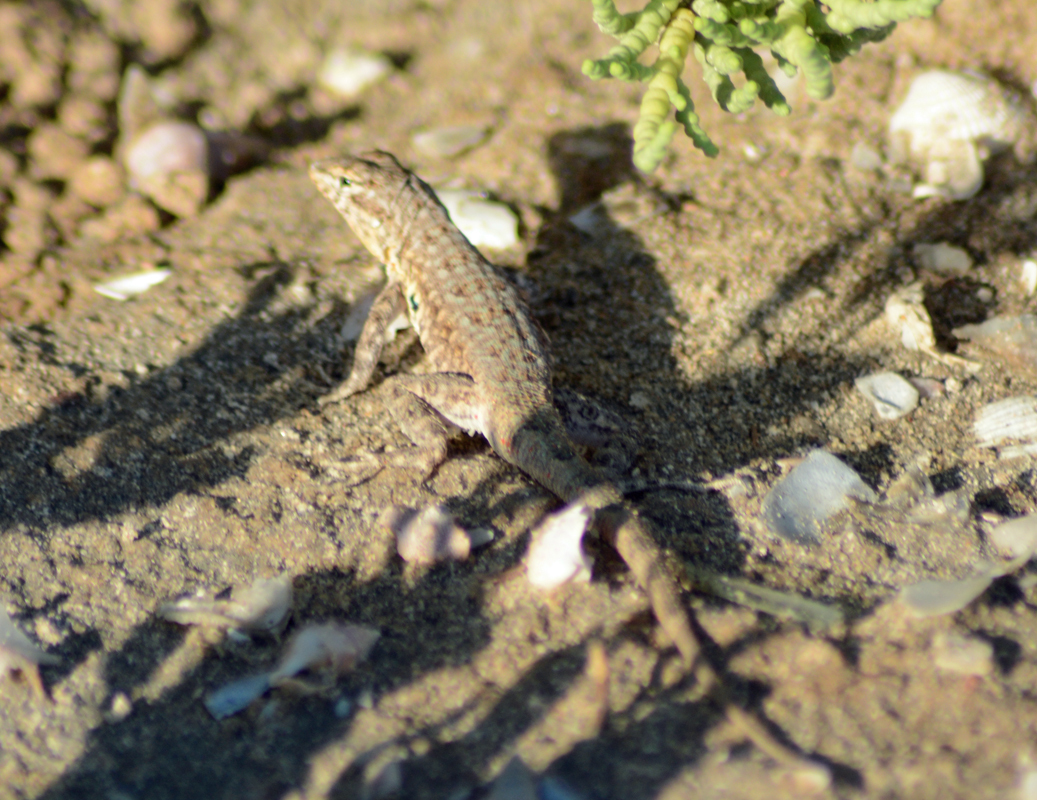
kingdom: Animalia
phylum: Chordata
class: Squamata
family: Phrynosomatidae
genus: Uta
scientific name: Uta stansburiana
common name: Side-blotched lizard
